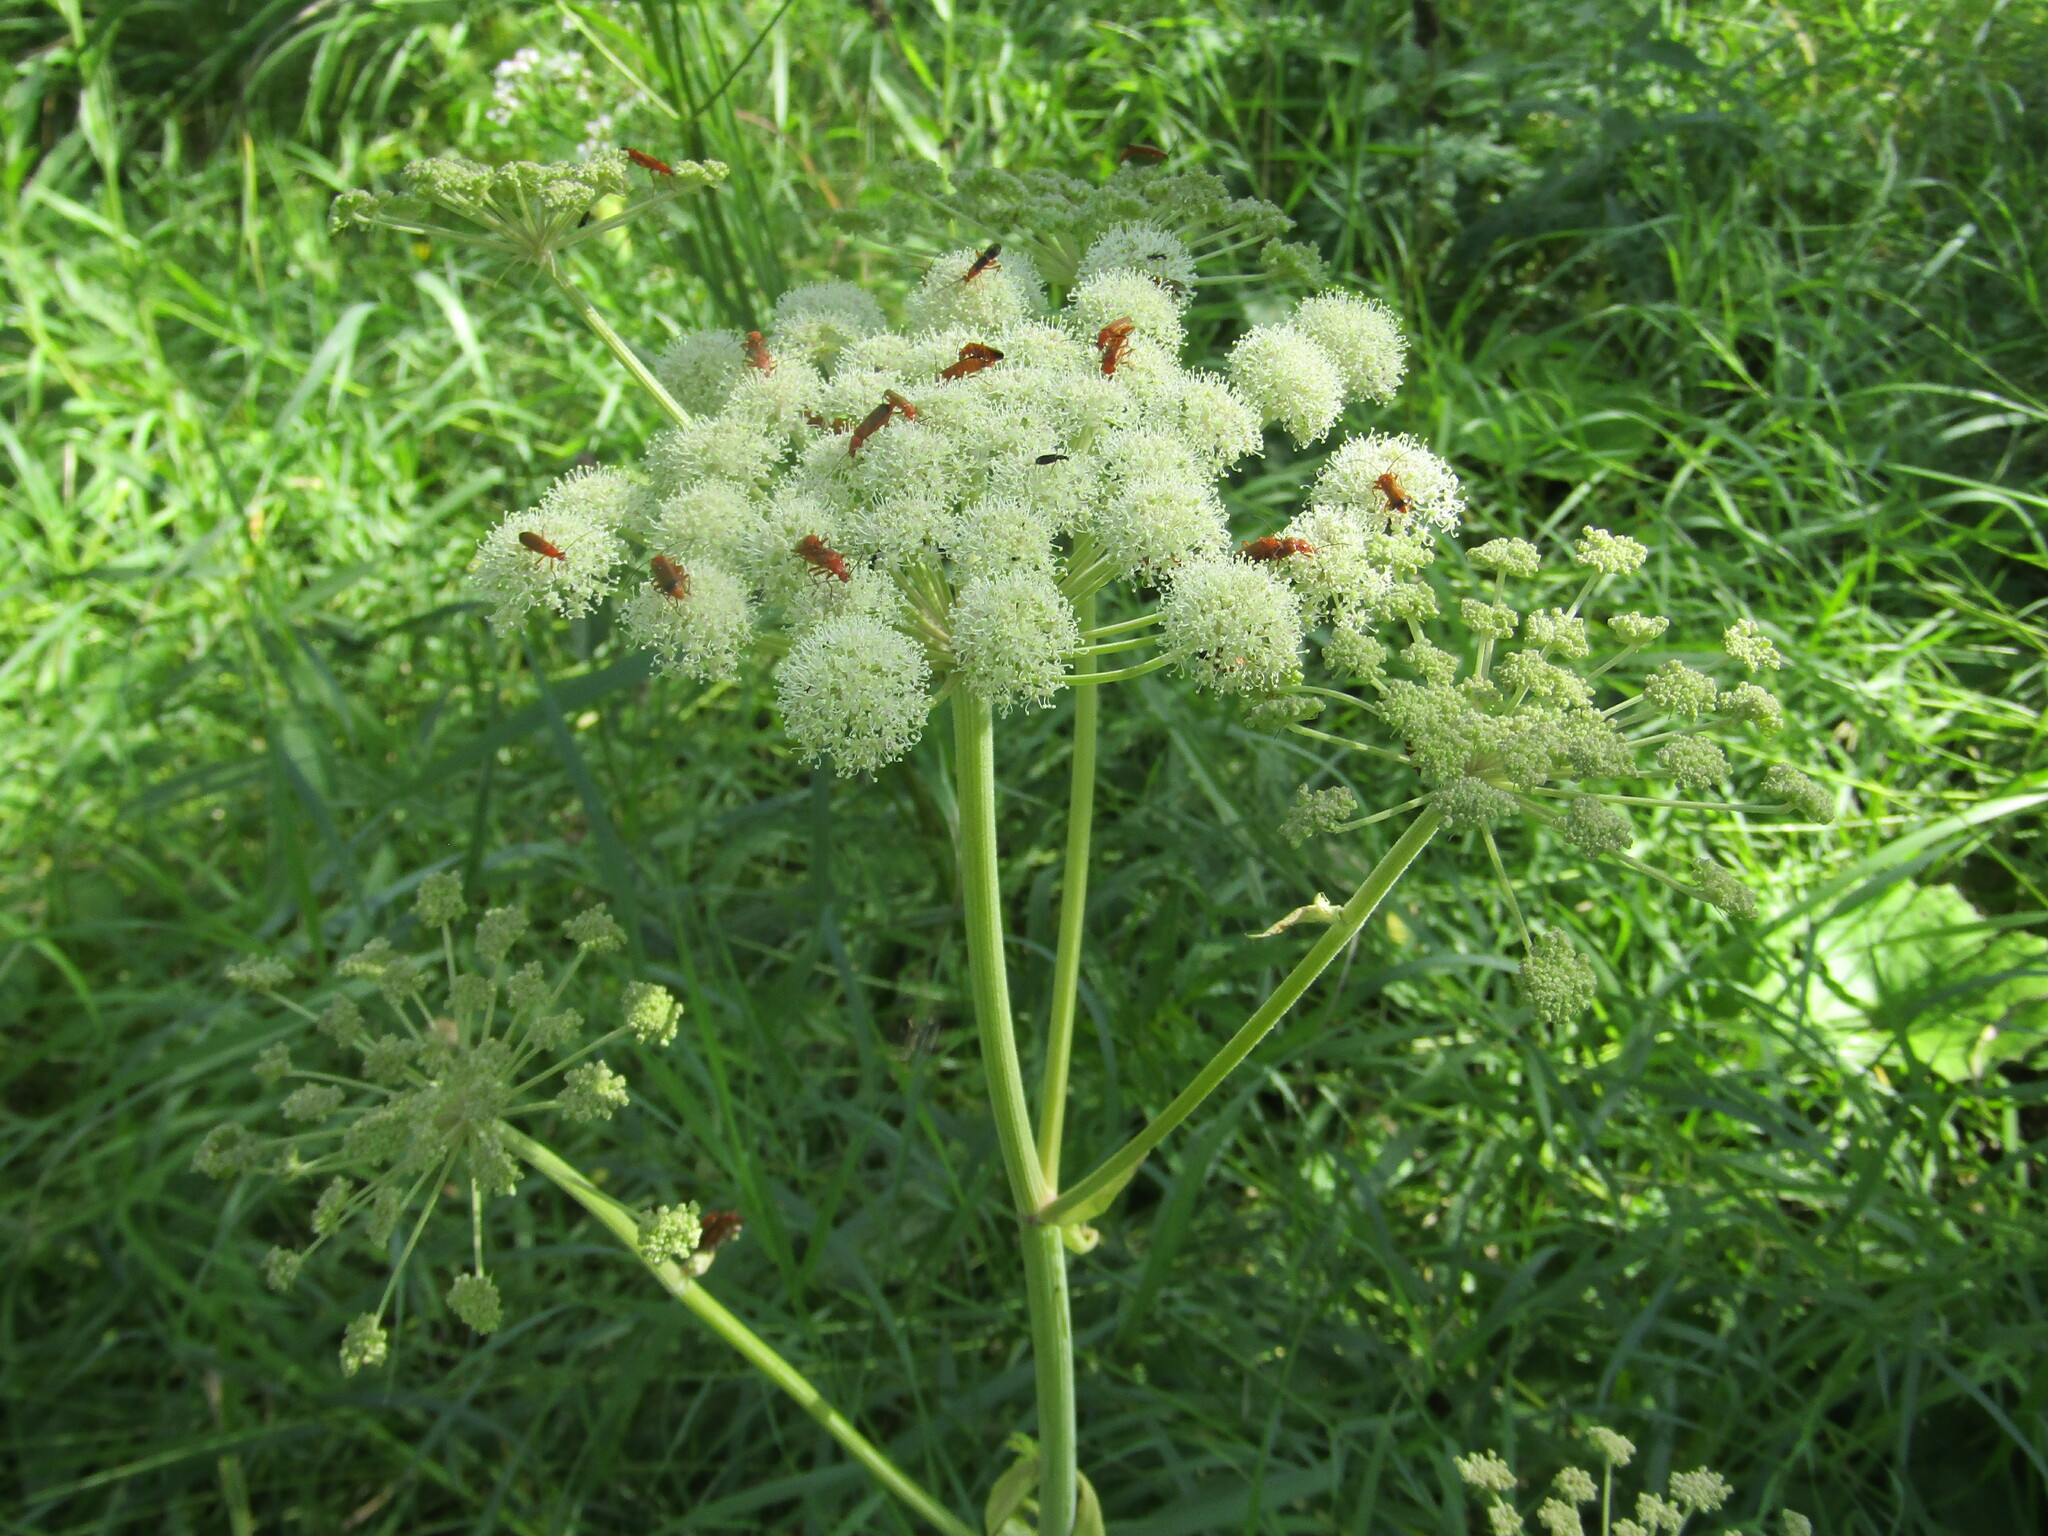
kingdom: Plantae
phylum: Tracheophyta
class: Magnoliopsida
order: Apiales
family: Apiaceae
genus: Angelica
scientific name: Angelica sylvestris
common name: Wild angelica
